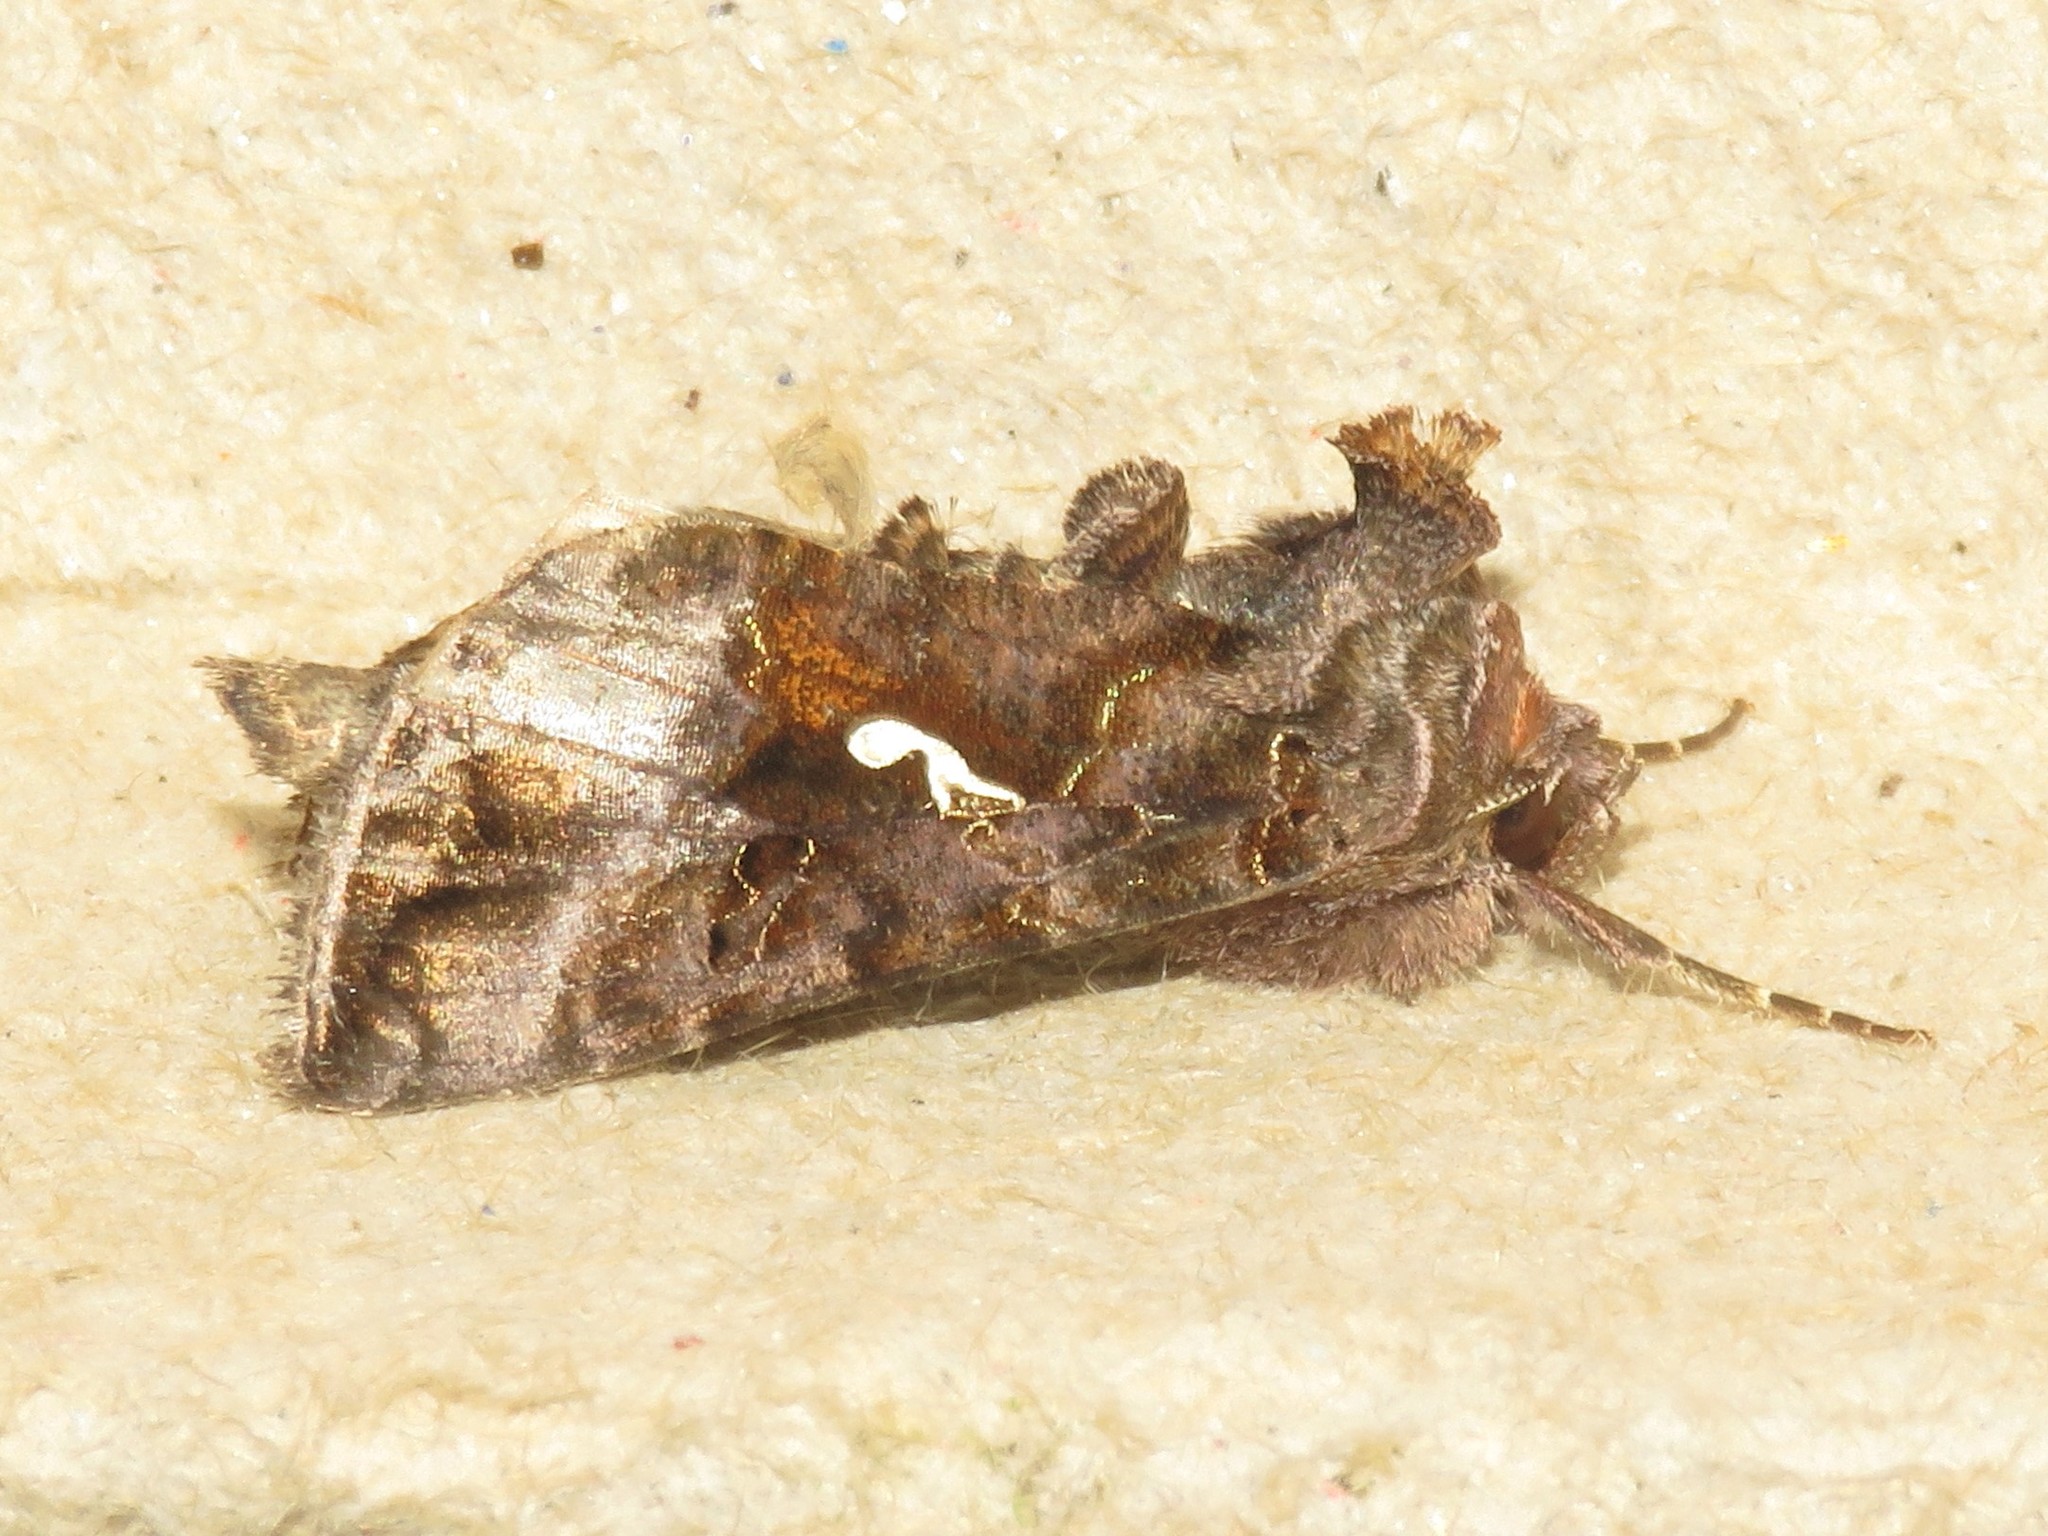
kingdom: Animalia
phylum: Arthropoda
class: Insecta
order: Lepidoptera
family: Noctuidae
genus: Autographa
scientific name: Autographa precationis
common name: Common looper moth
